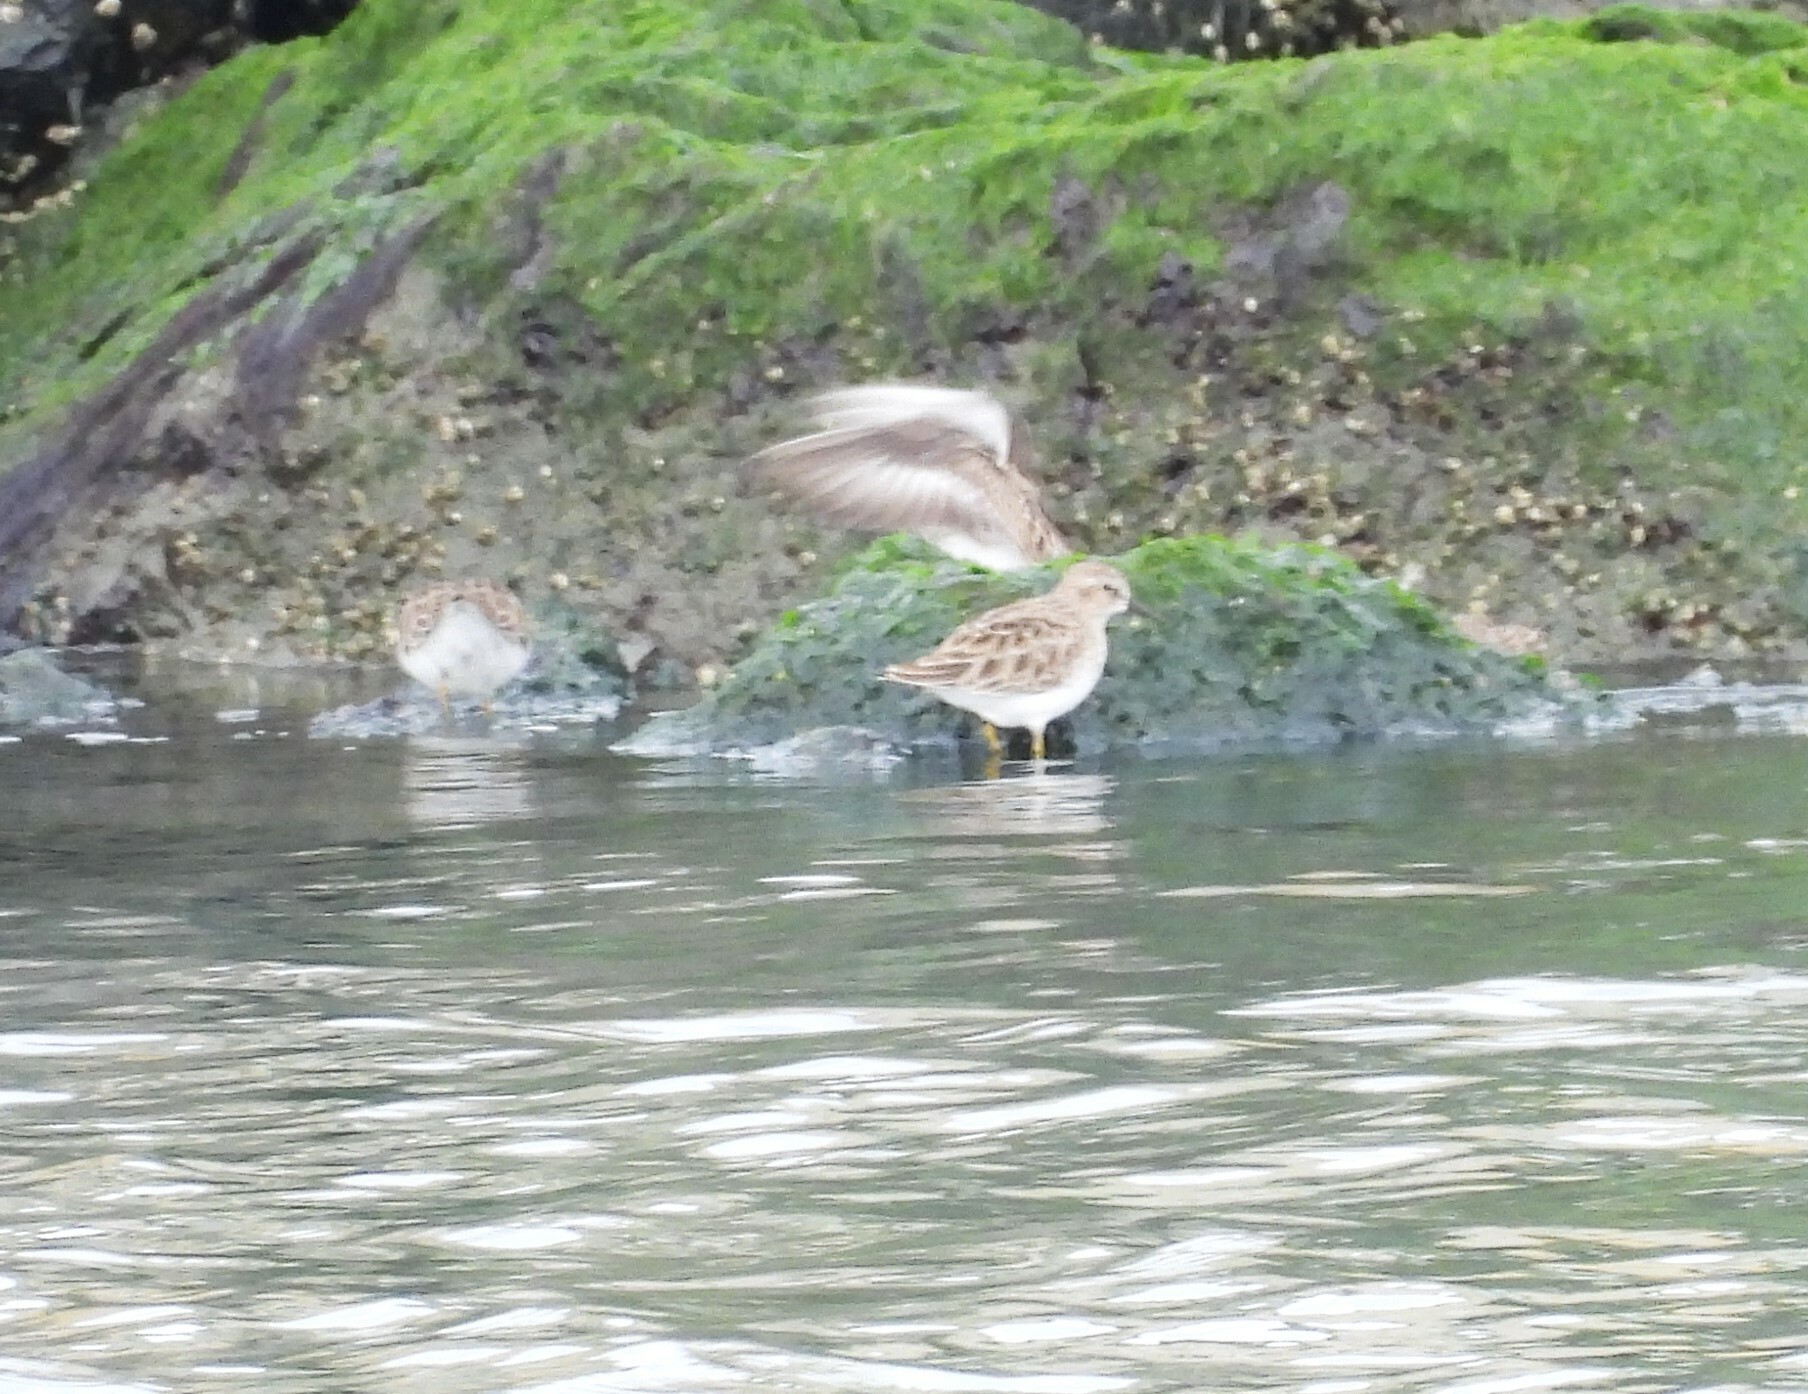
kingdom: Animalia
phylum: Chordata
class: Aves
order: Charadriiformes
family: Scolopacidae
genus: Calidris
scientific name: Calidris minutilla
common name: Least sandpiper
